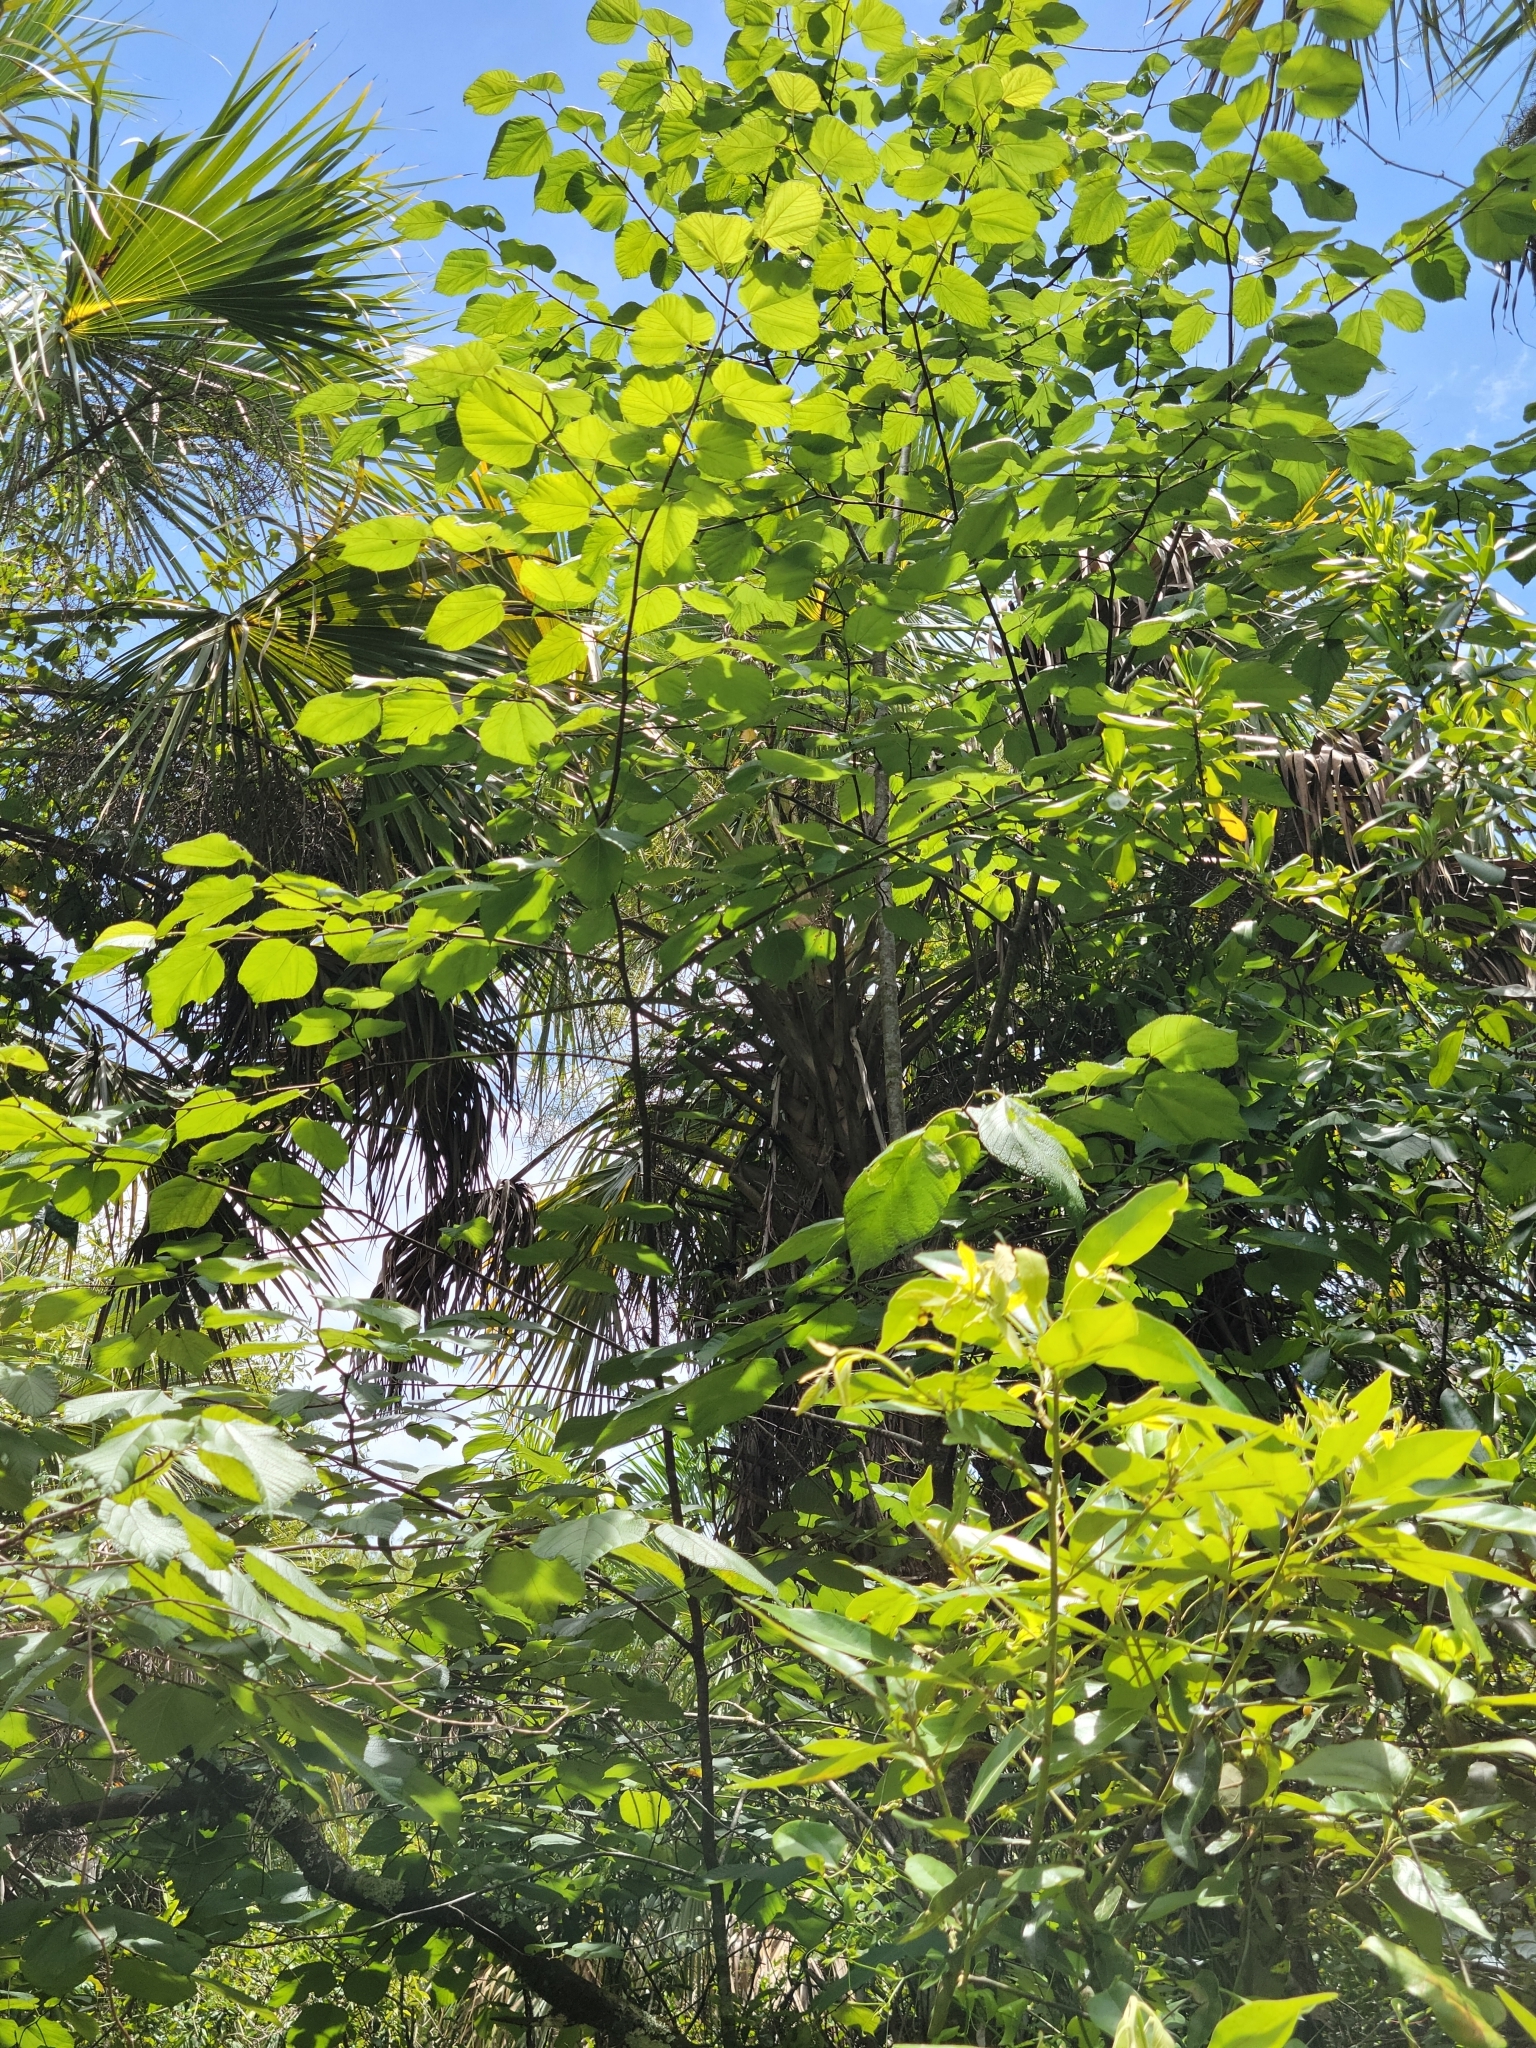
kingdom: Plantae
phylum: Tracheophyta
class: Magnoliopsida
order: Rosales
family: Moraceae
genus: Morus
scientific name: Morus rubra
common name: Red mulberry
